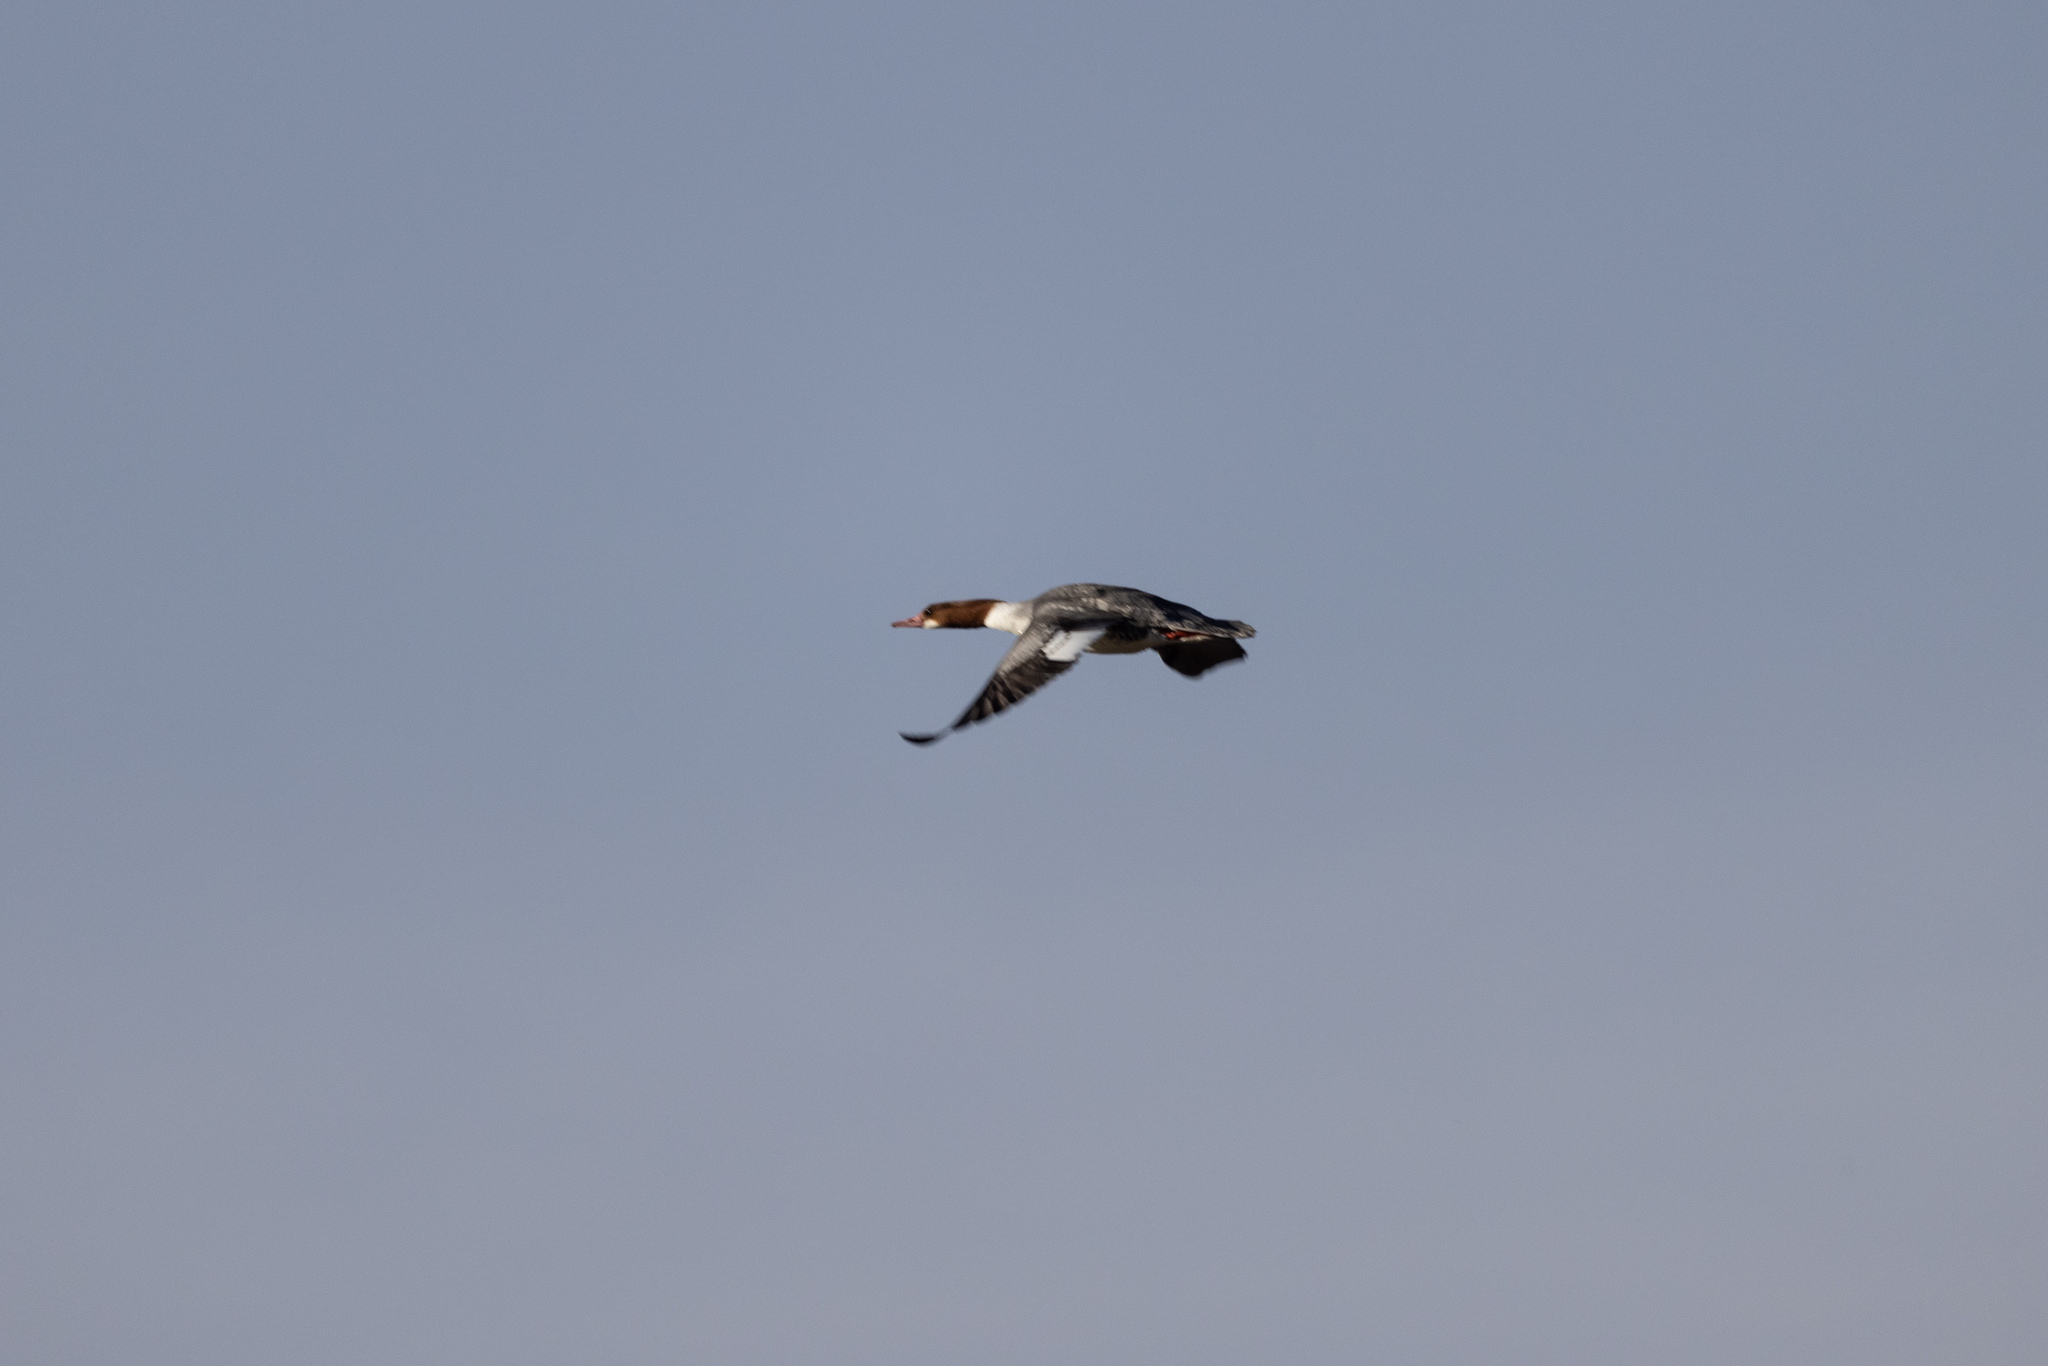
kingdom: Animalia
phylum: Chordata
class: Aves
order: Anseriformes
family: Anatidae
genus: Mergus
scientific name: Mergus merganser
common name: Common merganser
